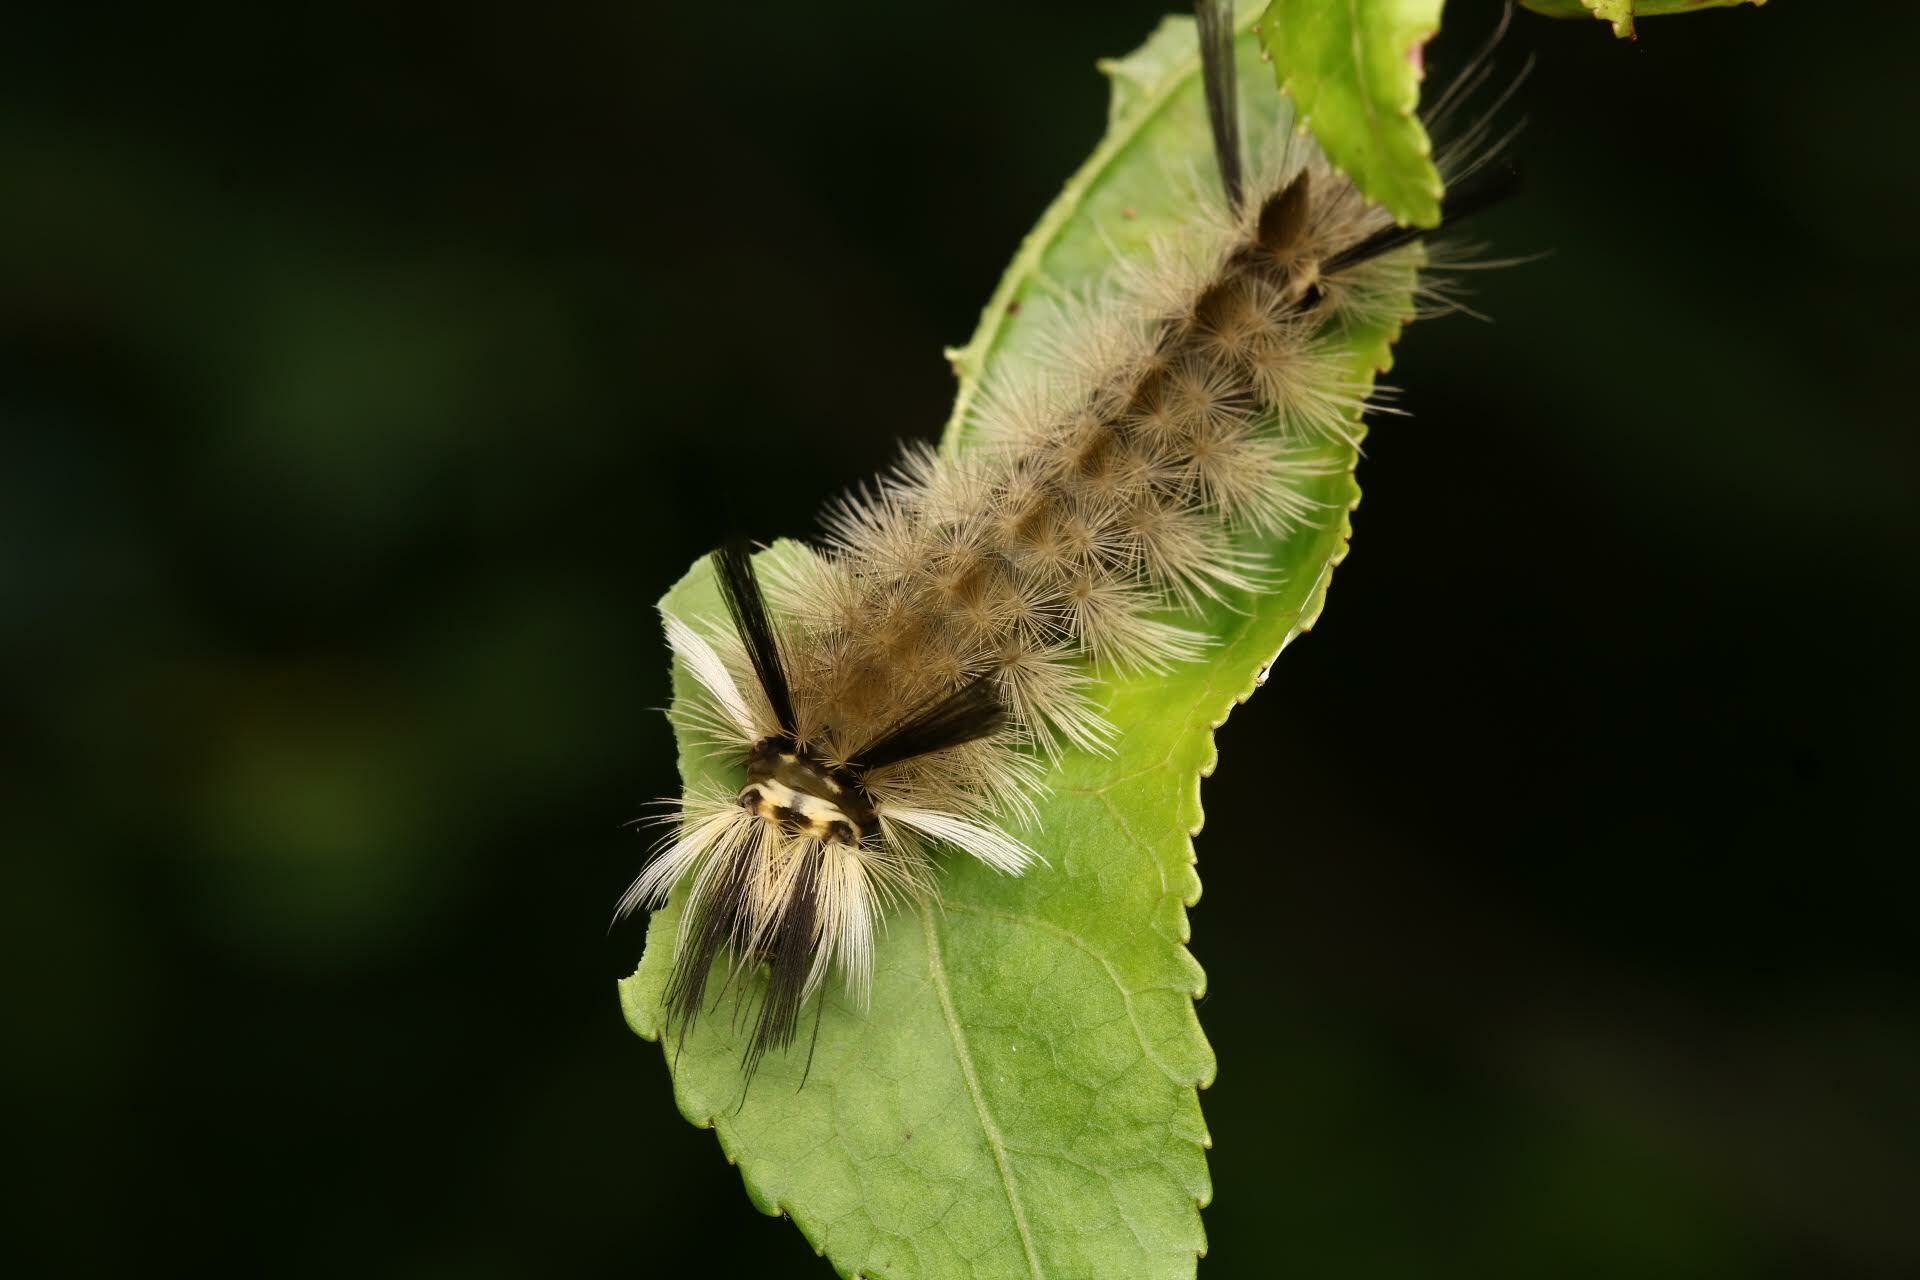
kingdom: Animalia
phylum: Arthropoda
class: Insecta
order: Lepidoptera
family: Erebidae
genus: Halysidota
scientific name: Halysidota tessellaris
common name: Banded tussock moth
